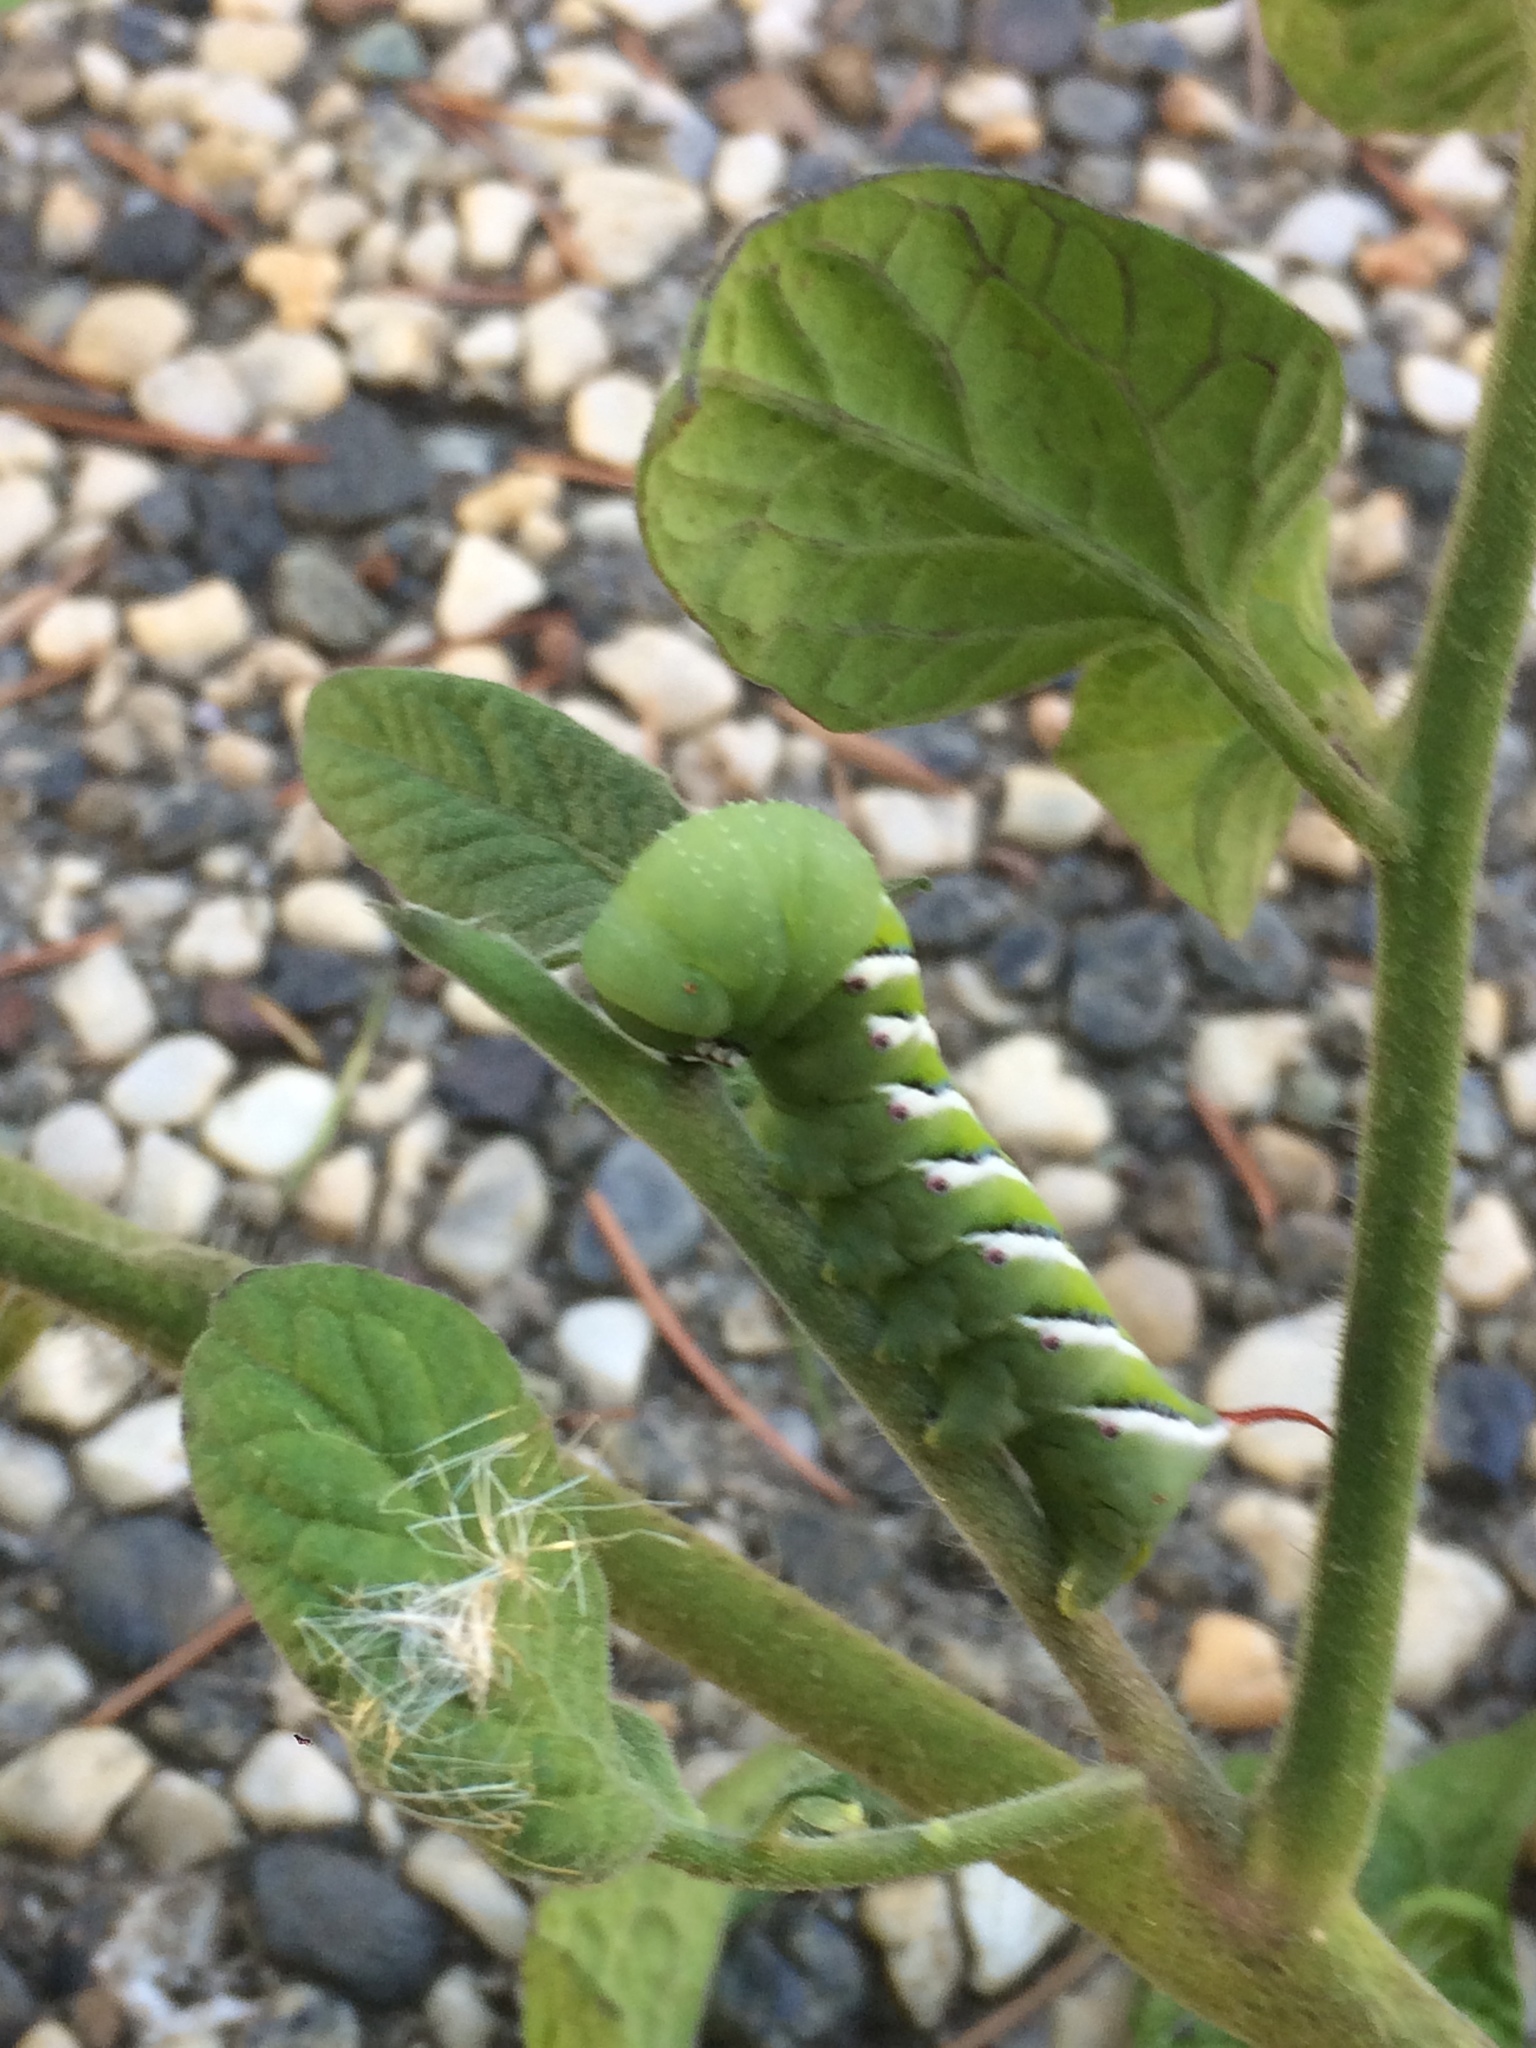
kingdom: Animalia
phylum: Arthropoda
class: Insecta
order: Lepidoptera
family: Sphingidae
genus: Manduca
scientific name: Manduca sexta
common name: Carolina sphinx
